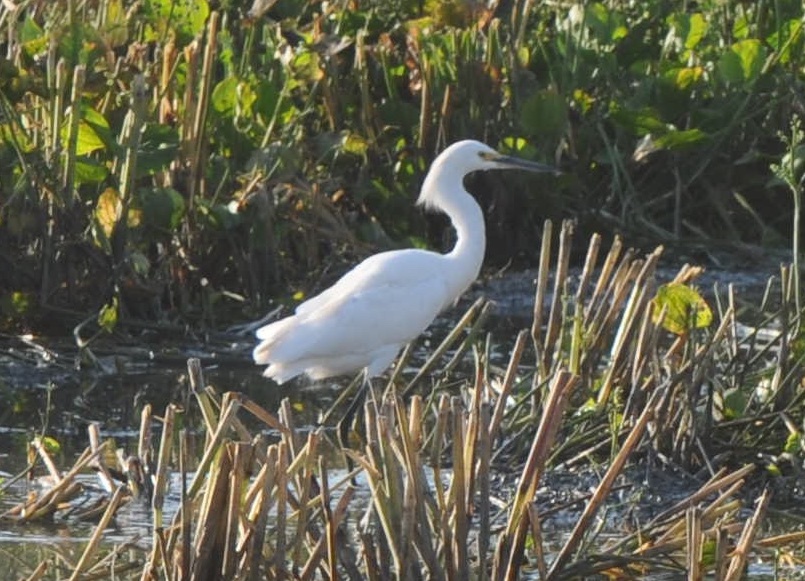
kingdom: Animalia
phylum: Chordata
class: Aves
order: Pelecaniformes
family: Ardeidae
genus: Egretta
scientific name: Egretta thula
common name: Snowy egret
